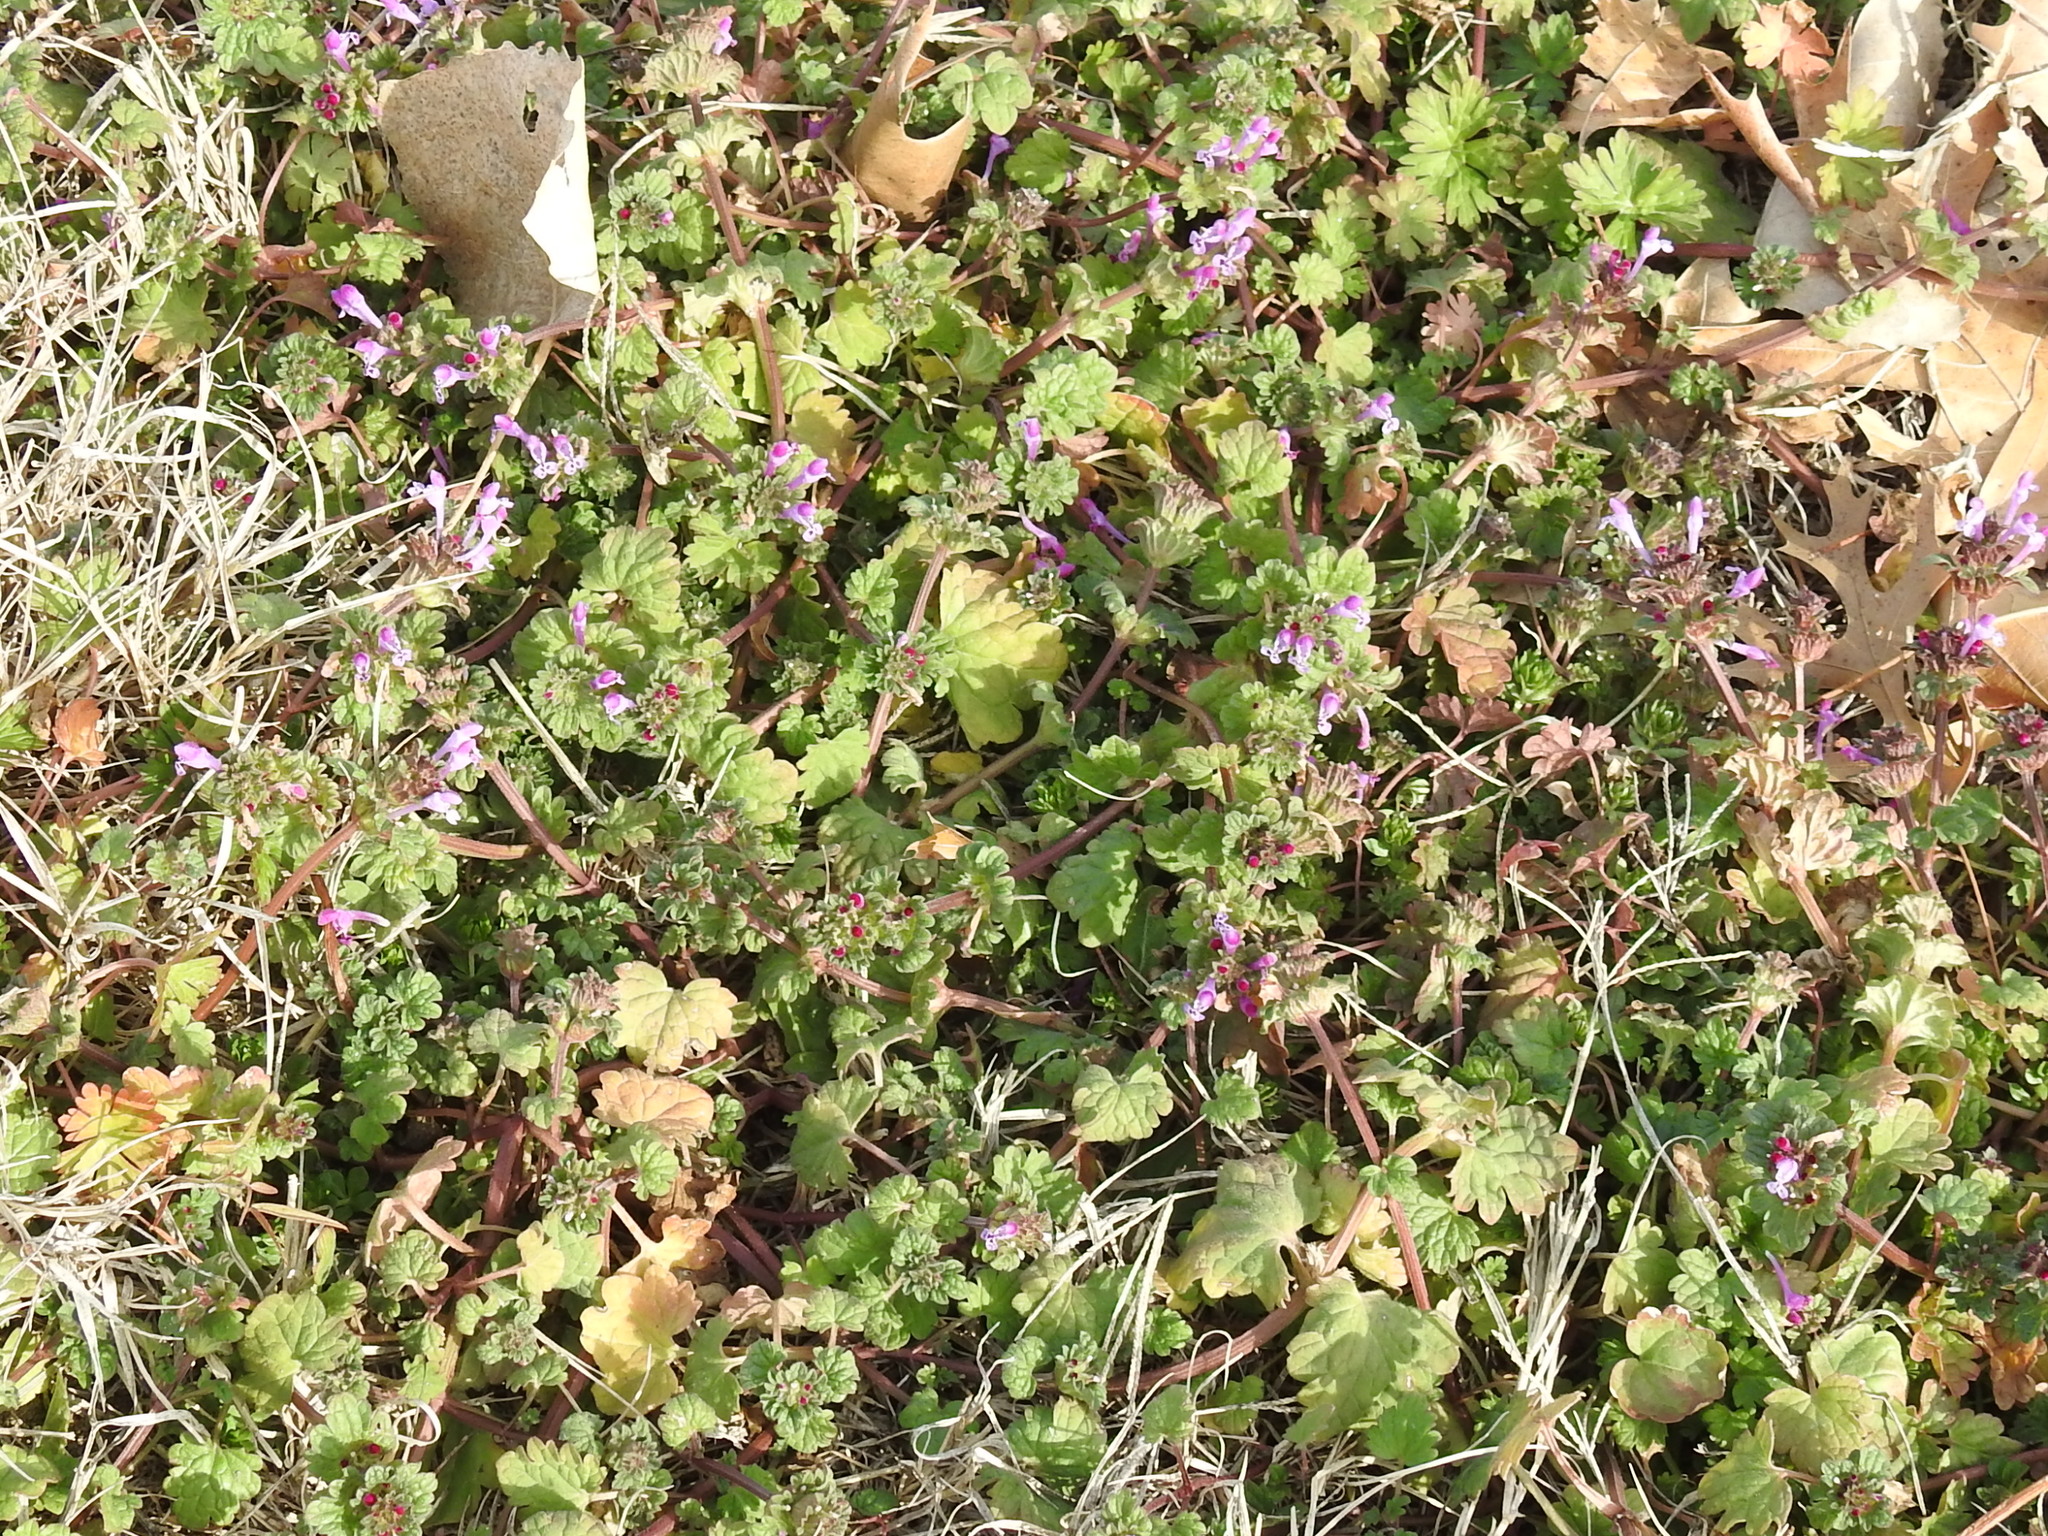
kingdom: Plantae
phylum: Tracheophyta
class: Magnoliopsida
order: Lamiales
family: Lamiaceae
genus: Lamium
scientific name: Lamium amplexicaule
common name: Henbit dead-nettle
